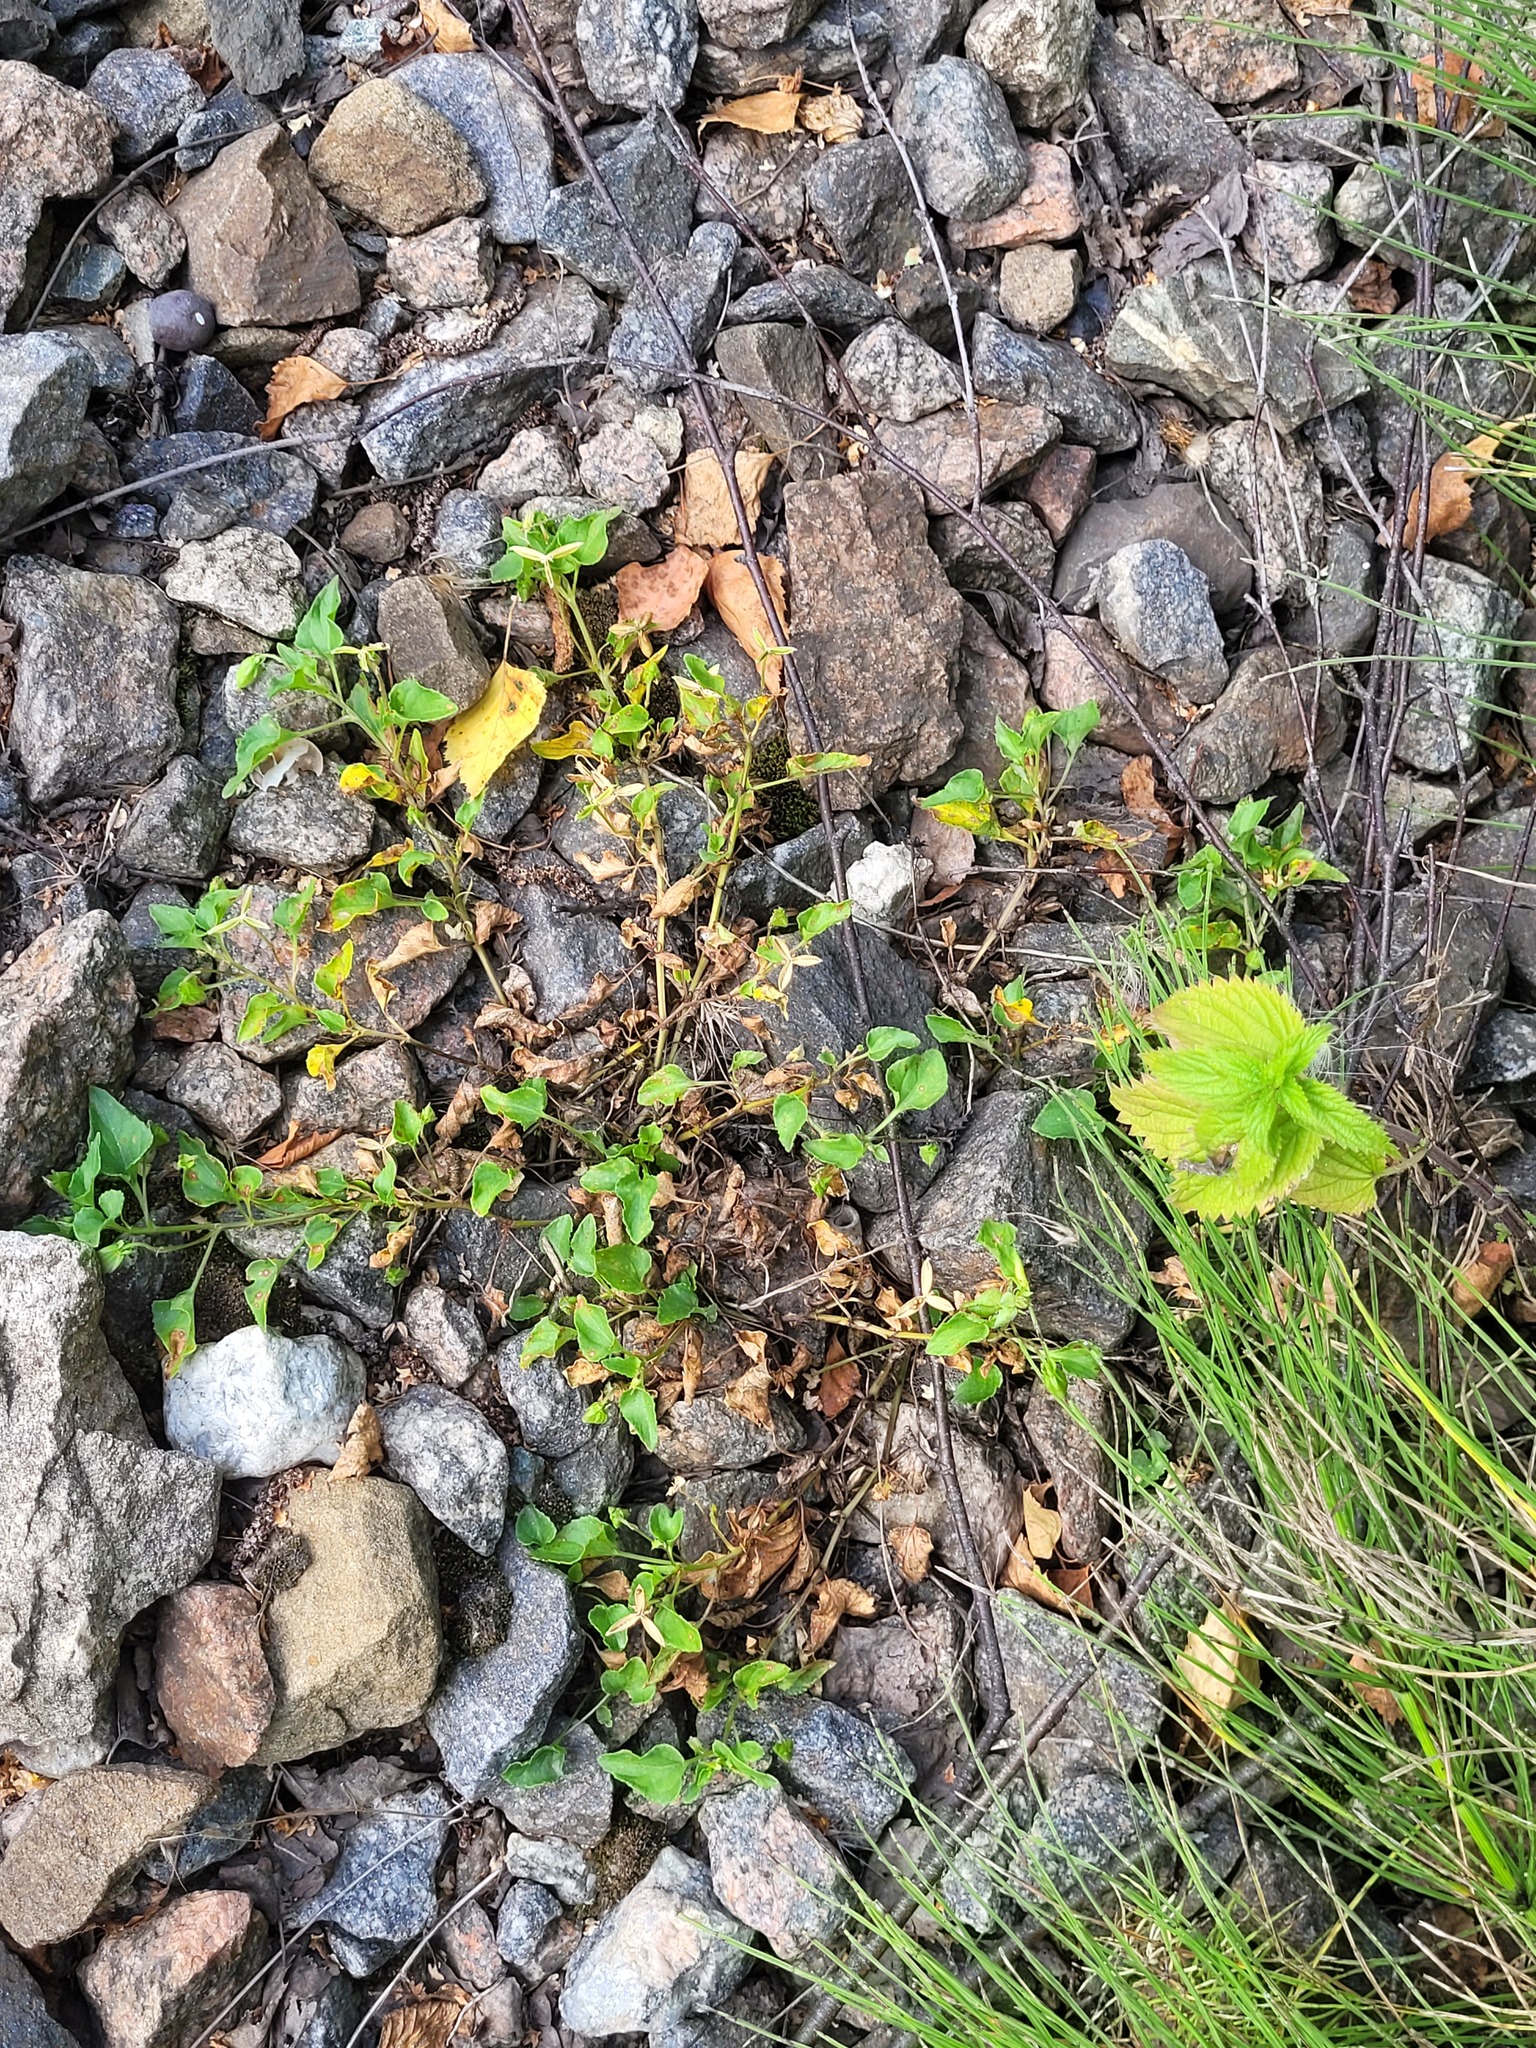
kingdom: Plantae
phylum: Tracheophyta
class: Magnoliopsida
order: Malpighiales
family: Violaceae
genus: Viola
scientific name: Viola canina
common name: Heath dog-violet
